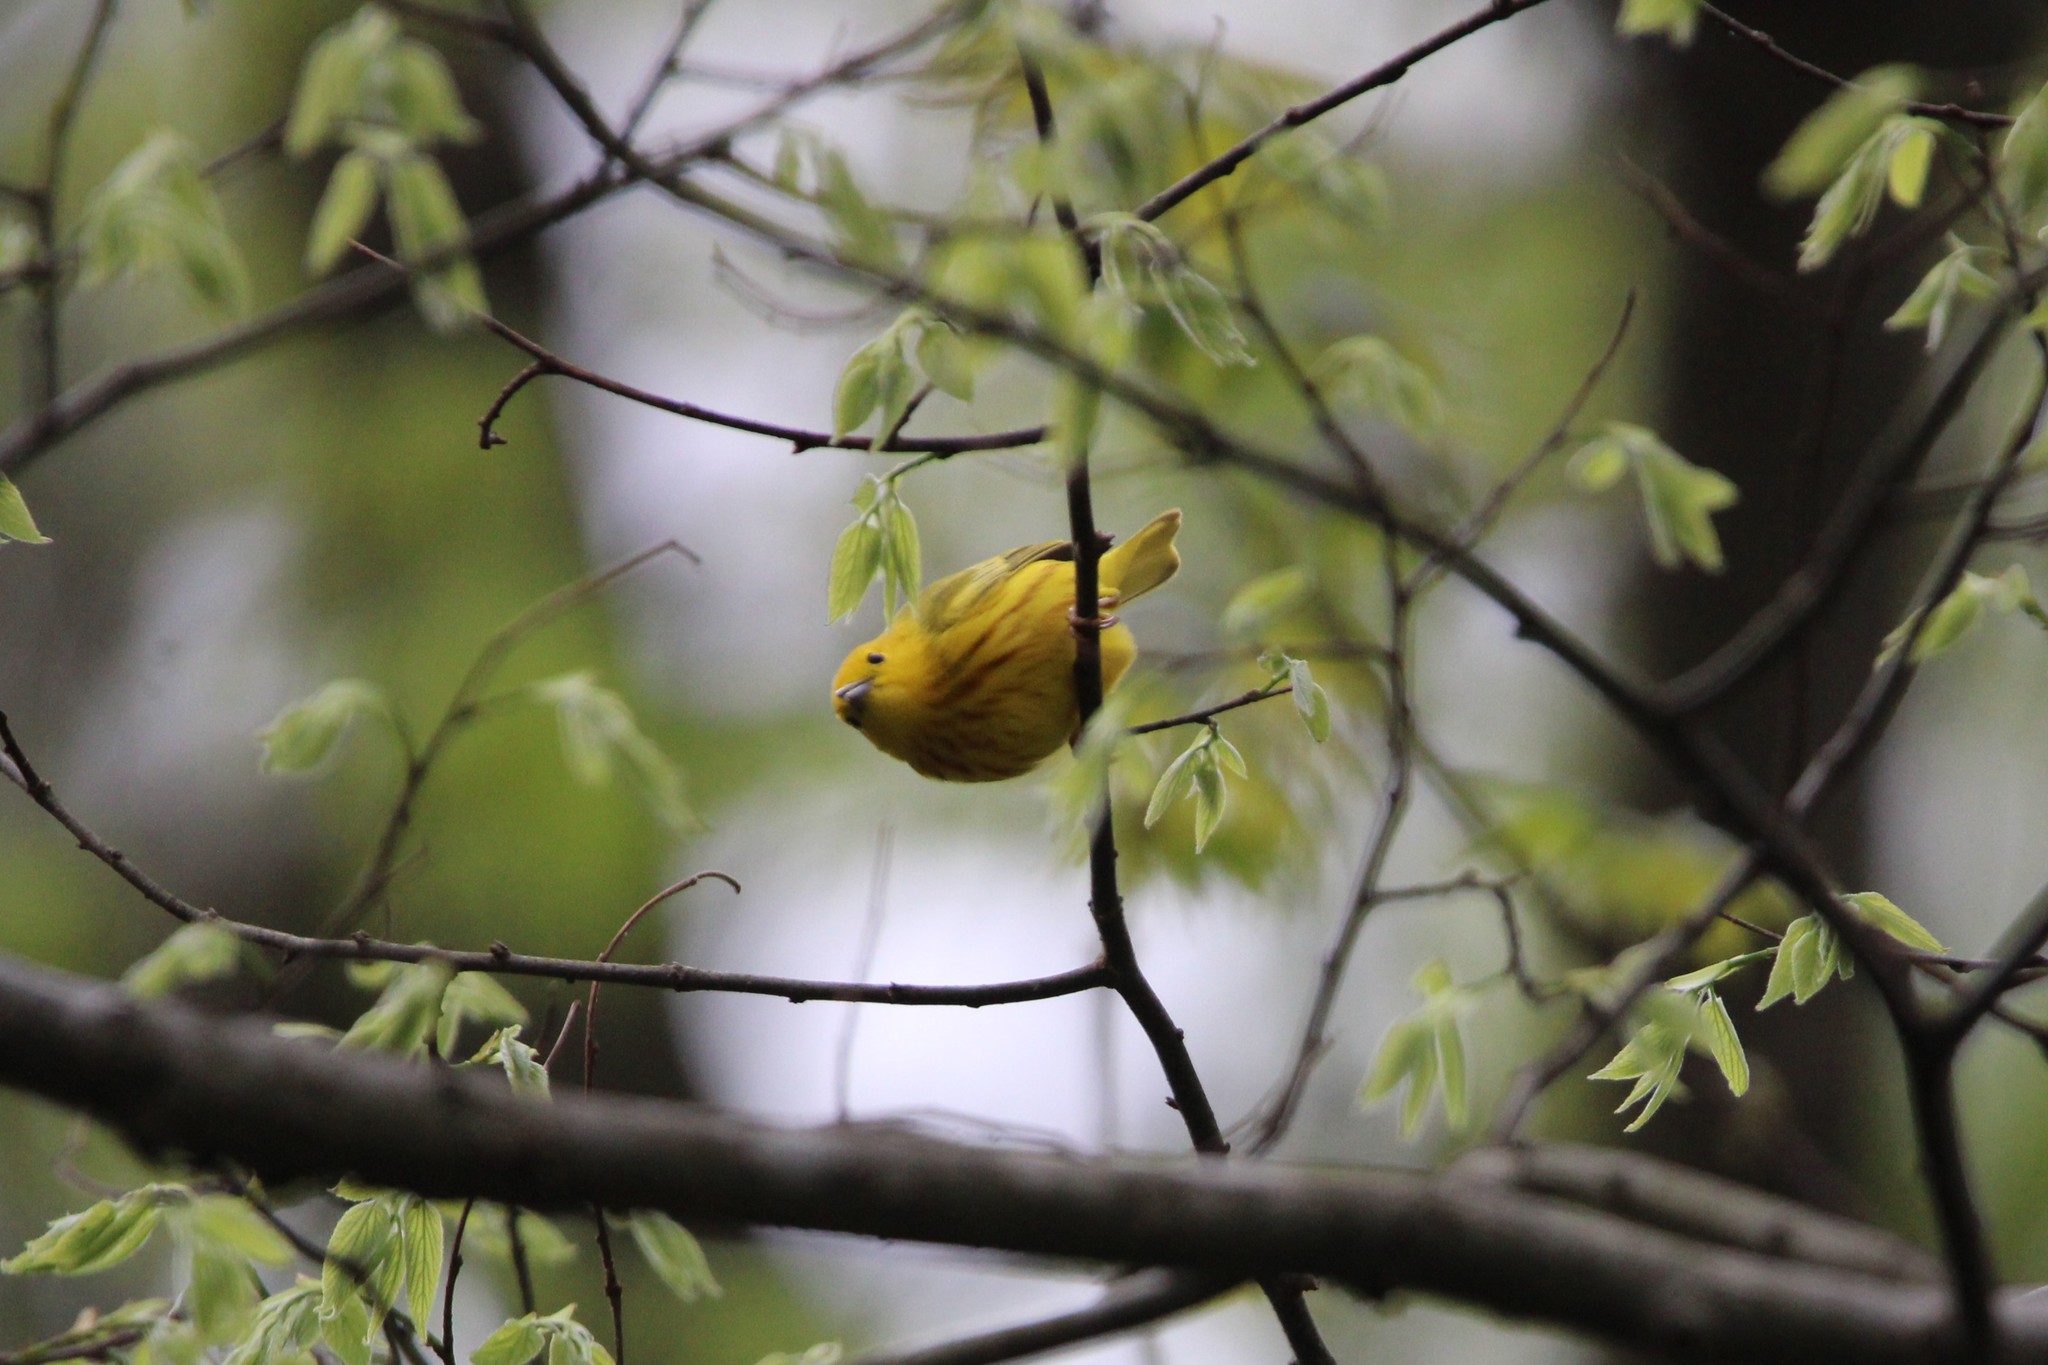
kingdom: Animalia
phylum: Chordata
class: Aves
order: Passeriformes
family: Parulidae
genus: Setophaga
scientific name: Setophaga petechia
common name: Yellow warbler
